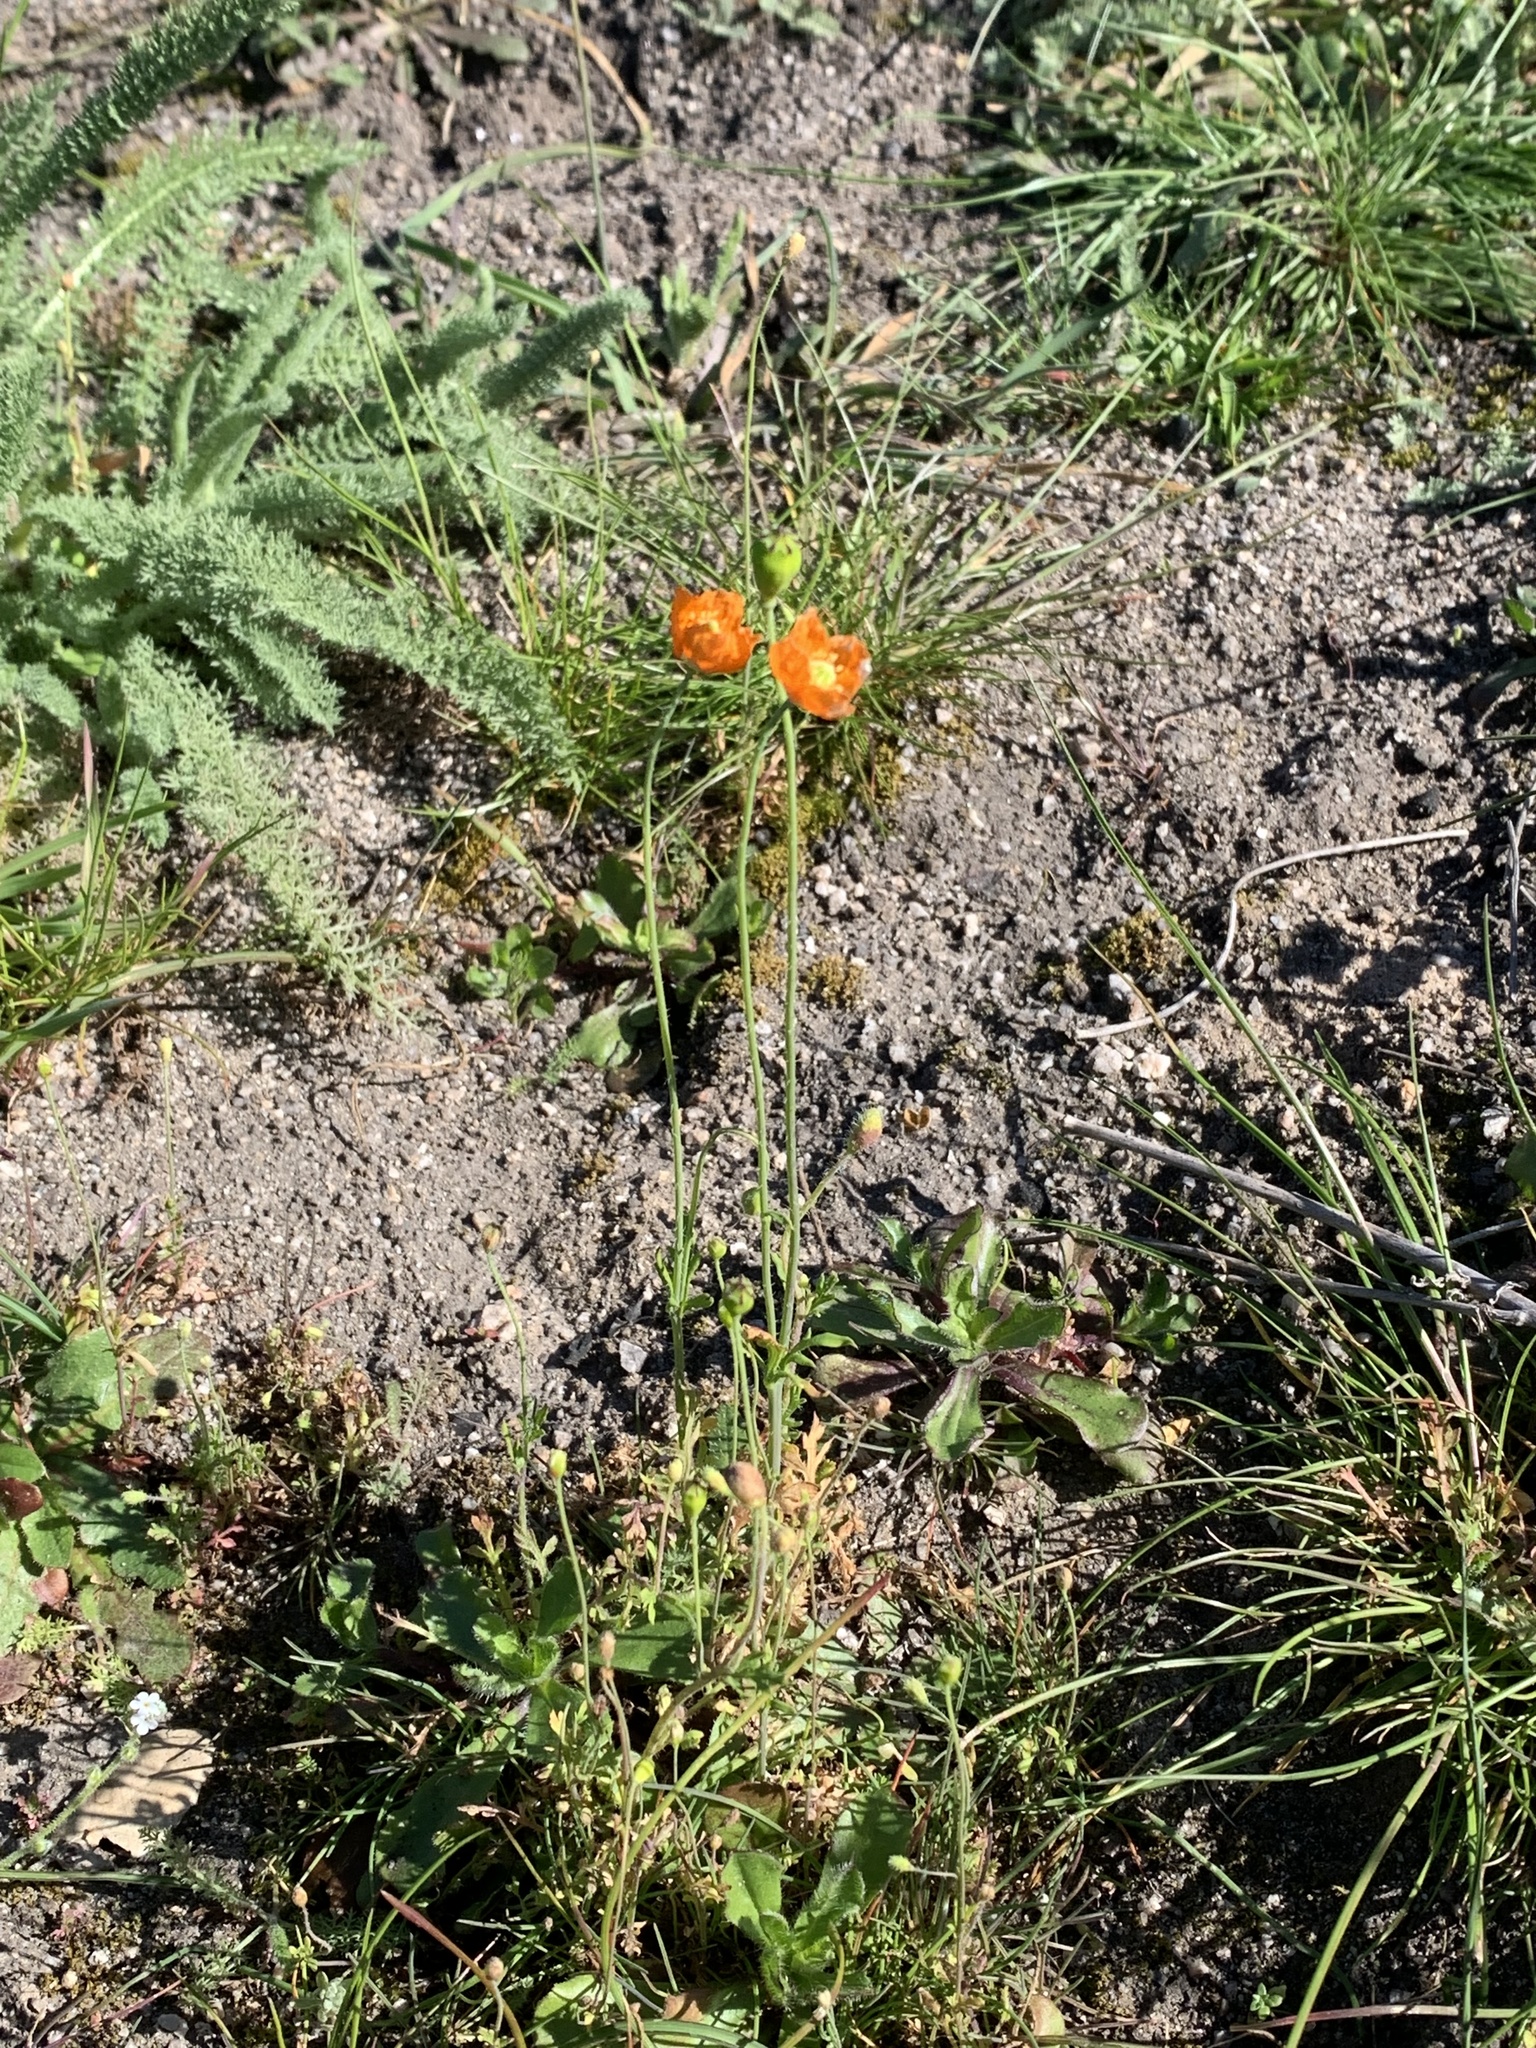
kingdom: Plantae
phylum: Tracheophyta
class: Magnoliopsida
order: Ranunculales
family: Papaveraceae
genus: Papaver
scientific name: Papaver californicum
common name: Fire poppy
